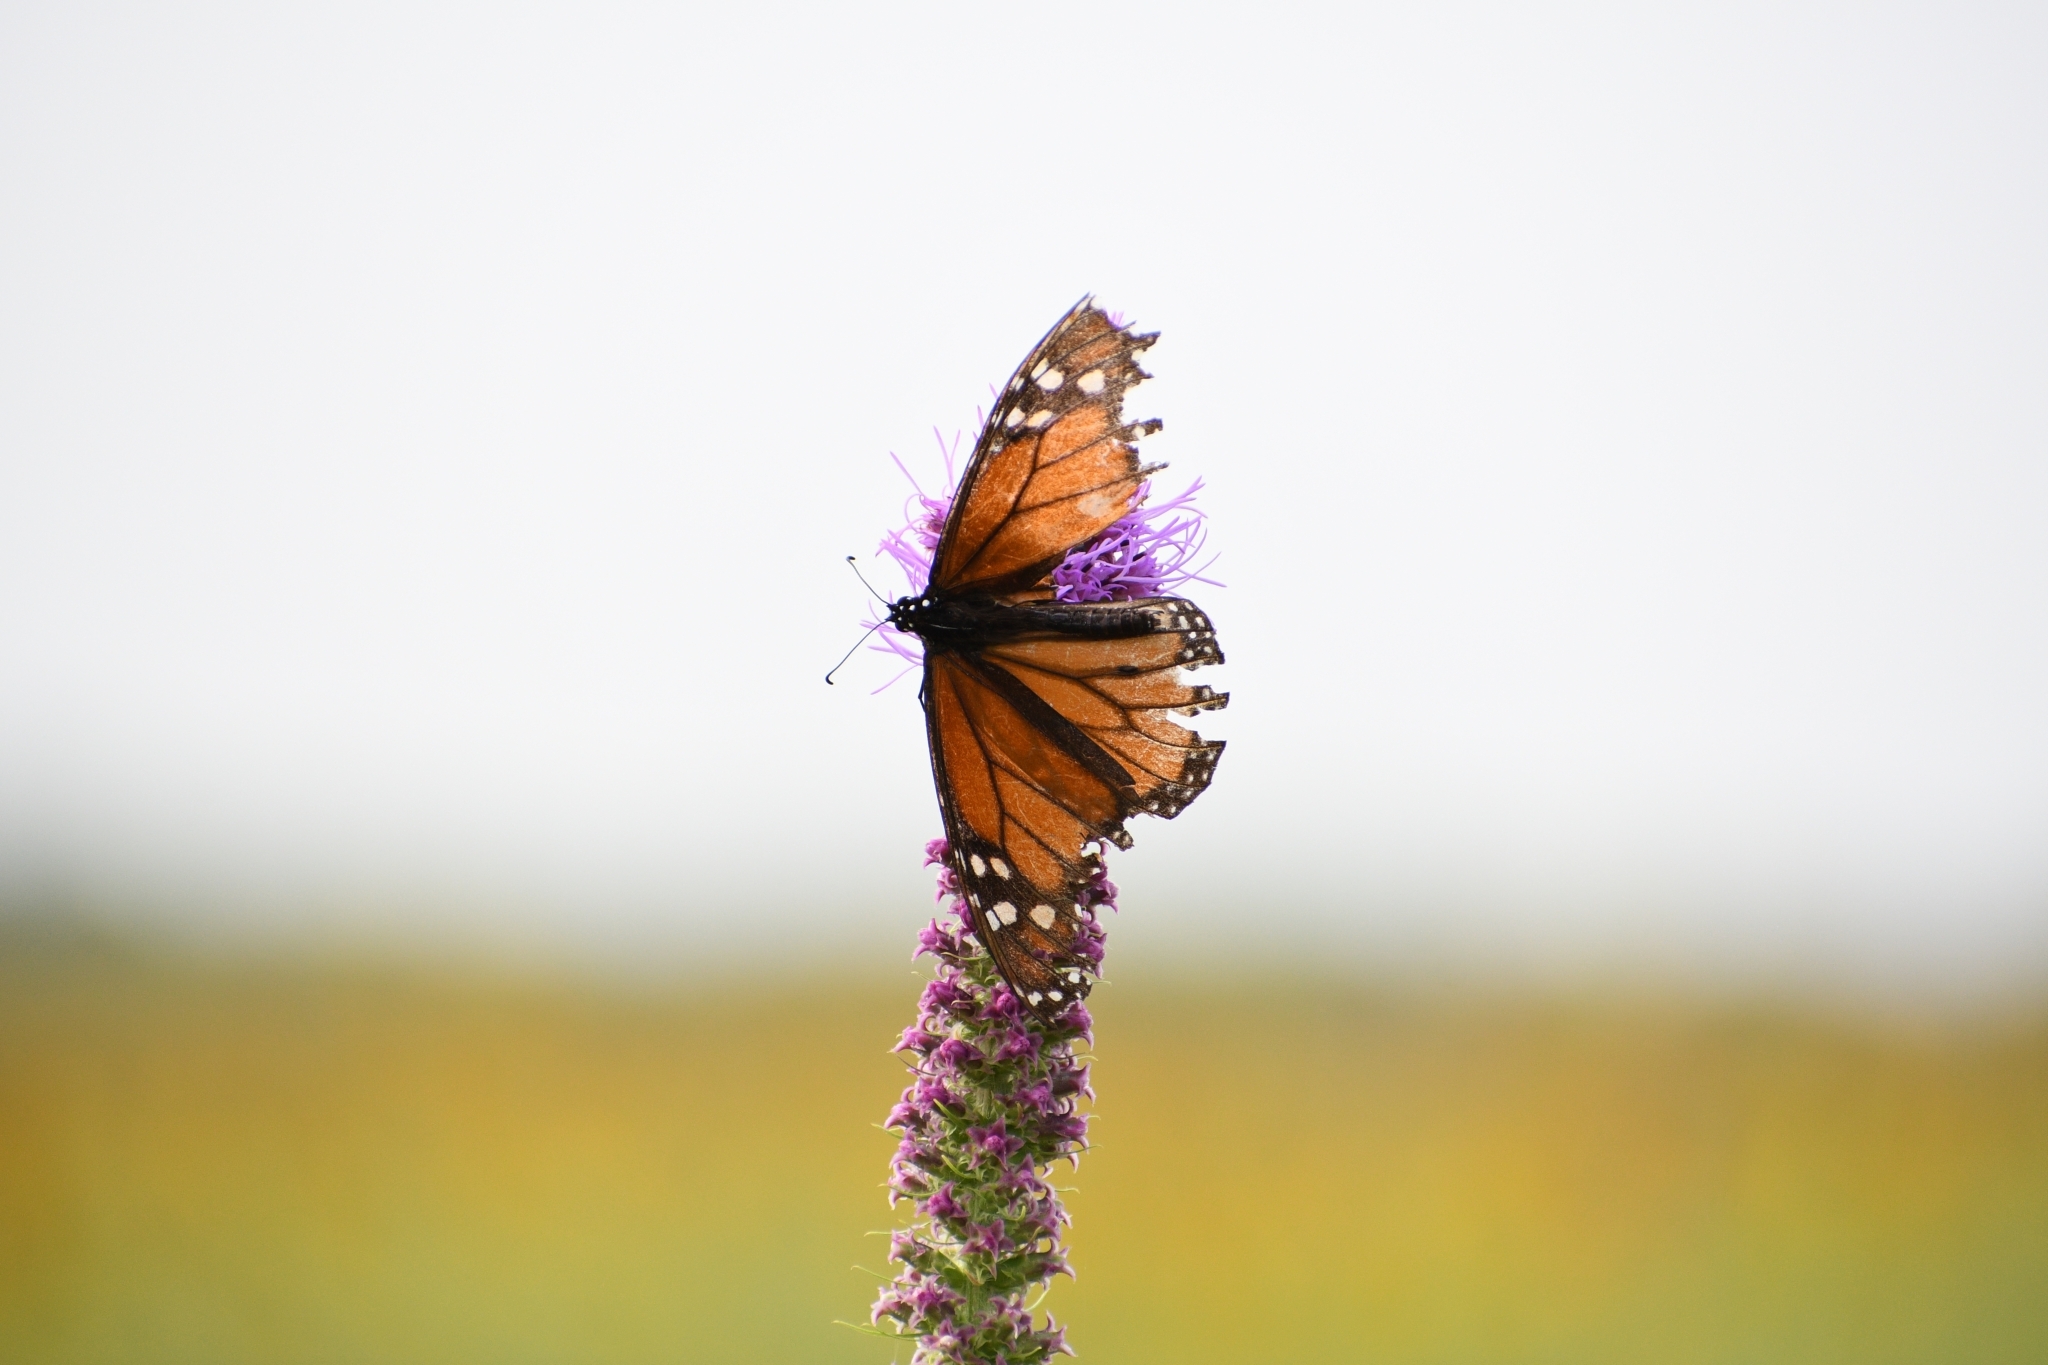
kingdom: Animalia
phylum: Arthropoda
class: Insecta
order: Lepidoptera
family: Nymphalidae
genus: Danaus
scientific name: Danaus plexippus
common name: Monarch
